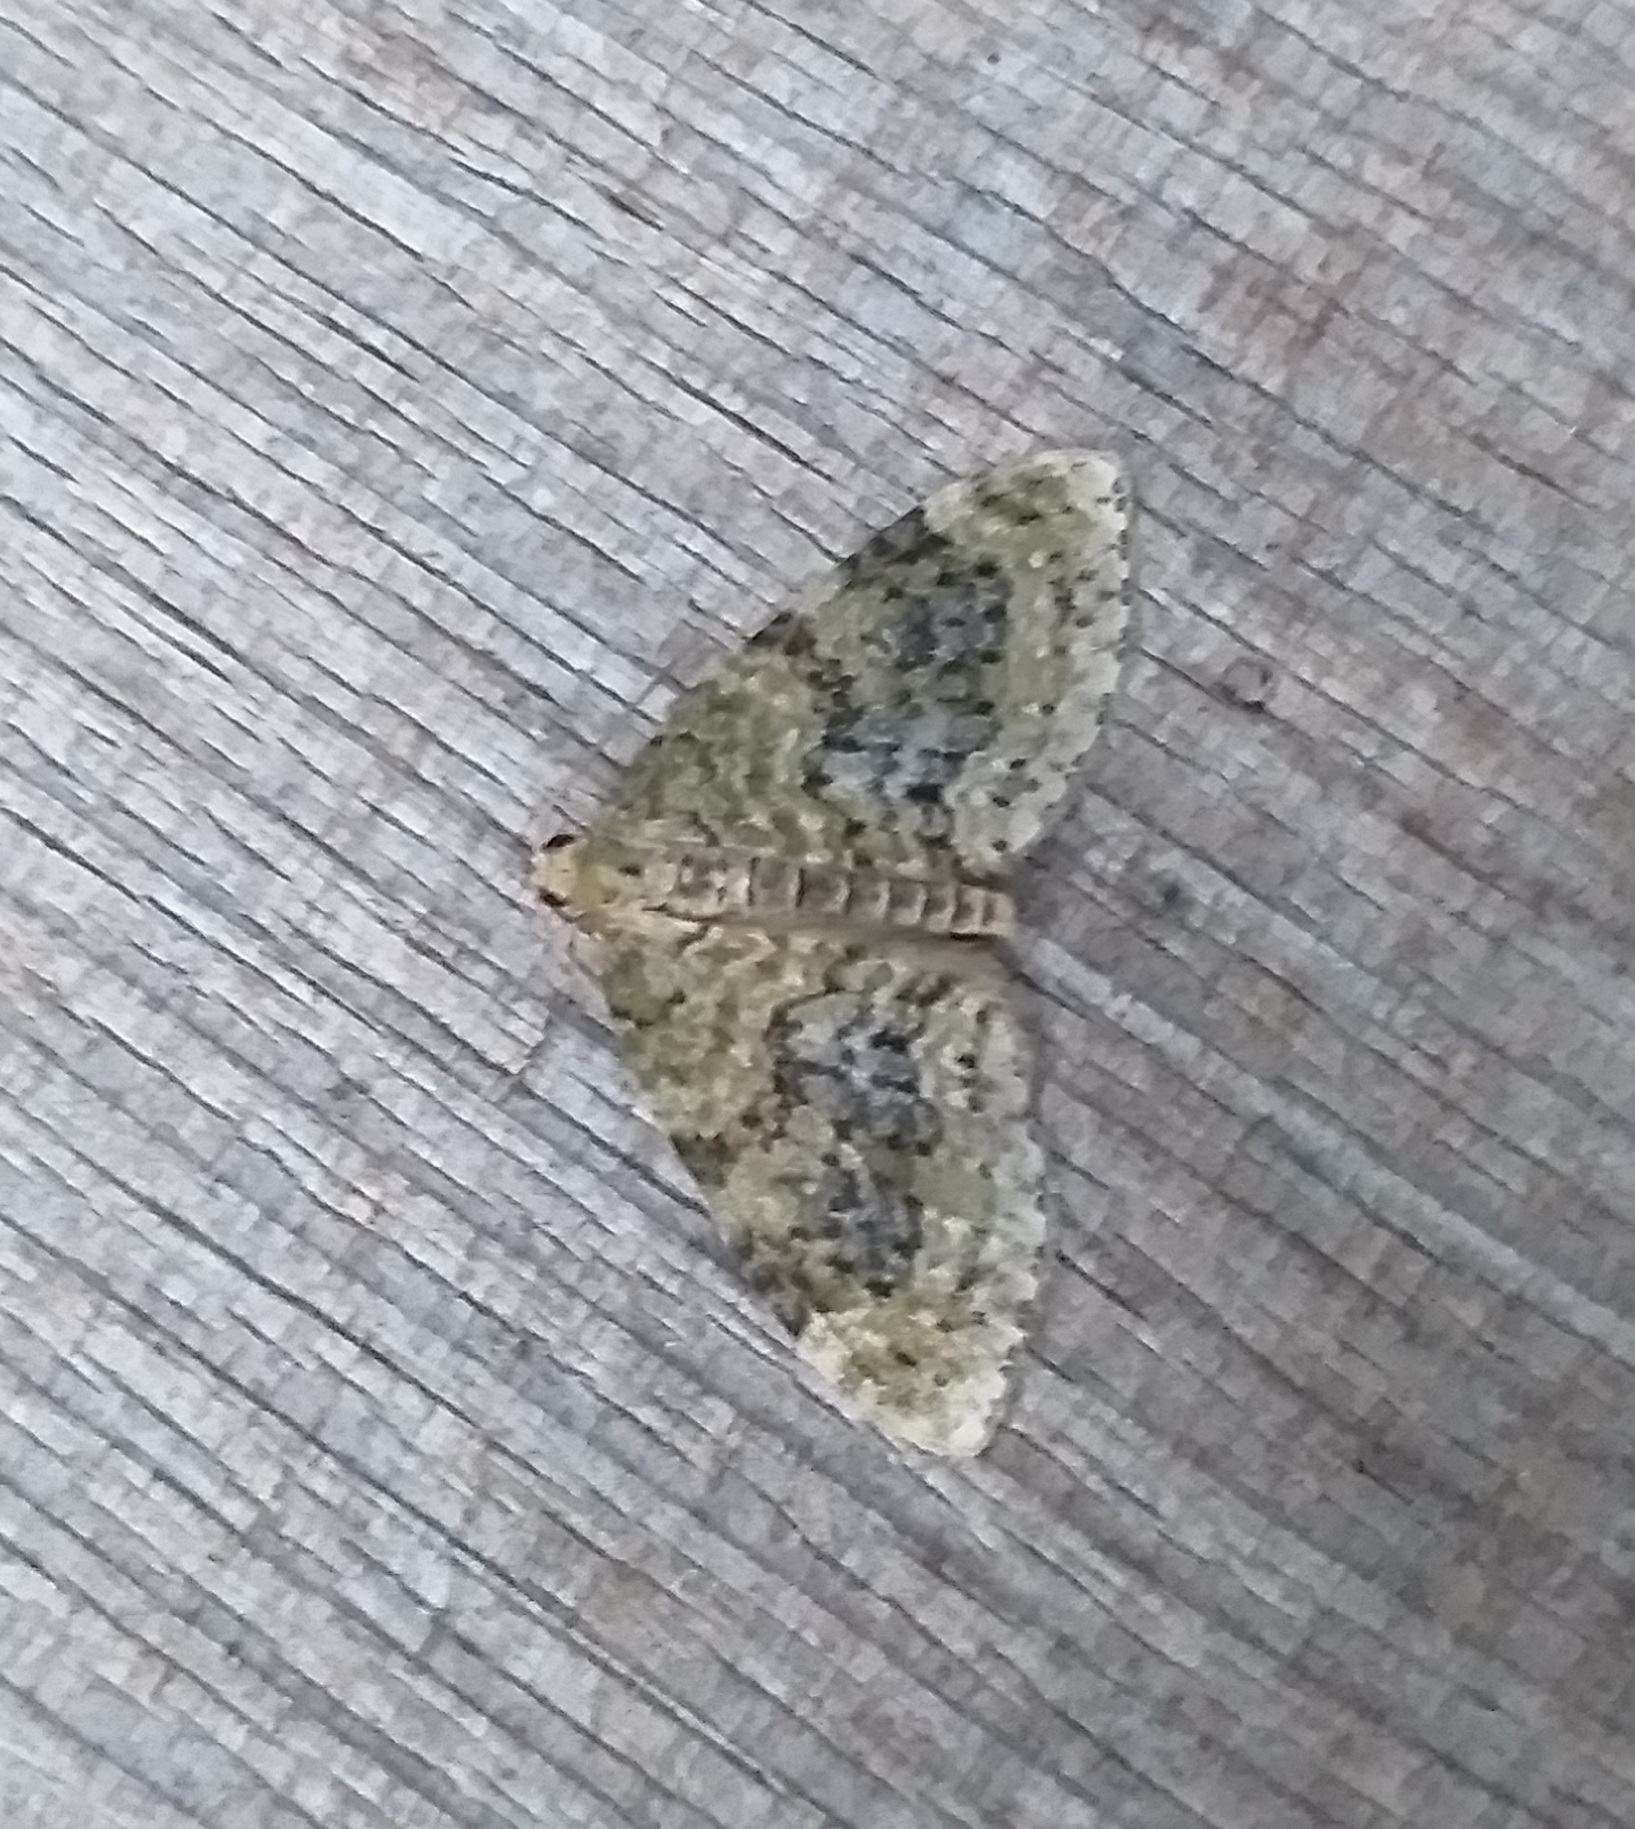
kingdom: Animalia
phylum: Arthropoda
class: Insecta
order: Lepidoptera
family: Geometridae
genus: Acasis
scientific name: Acasis viretata
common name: Yellow-barred brindle
